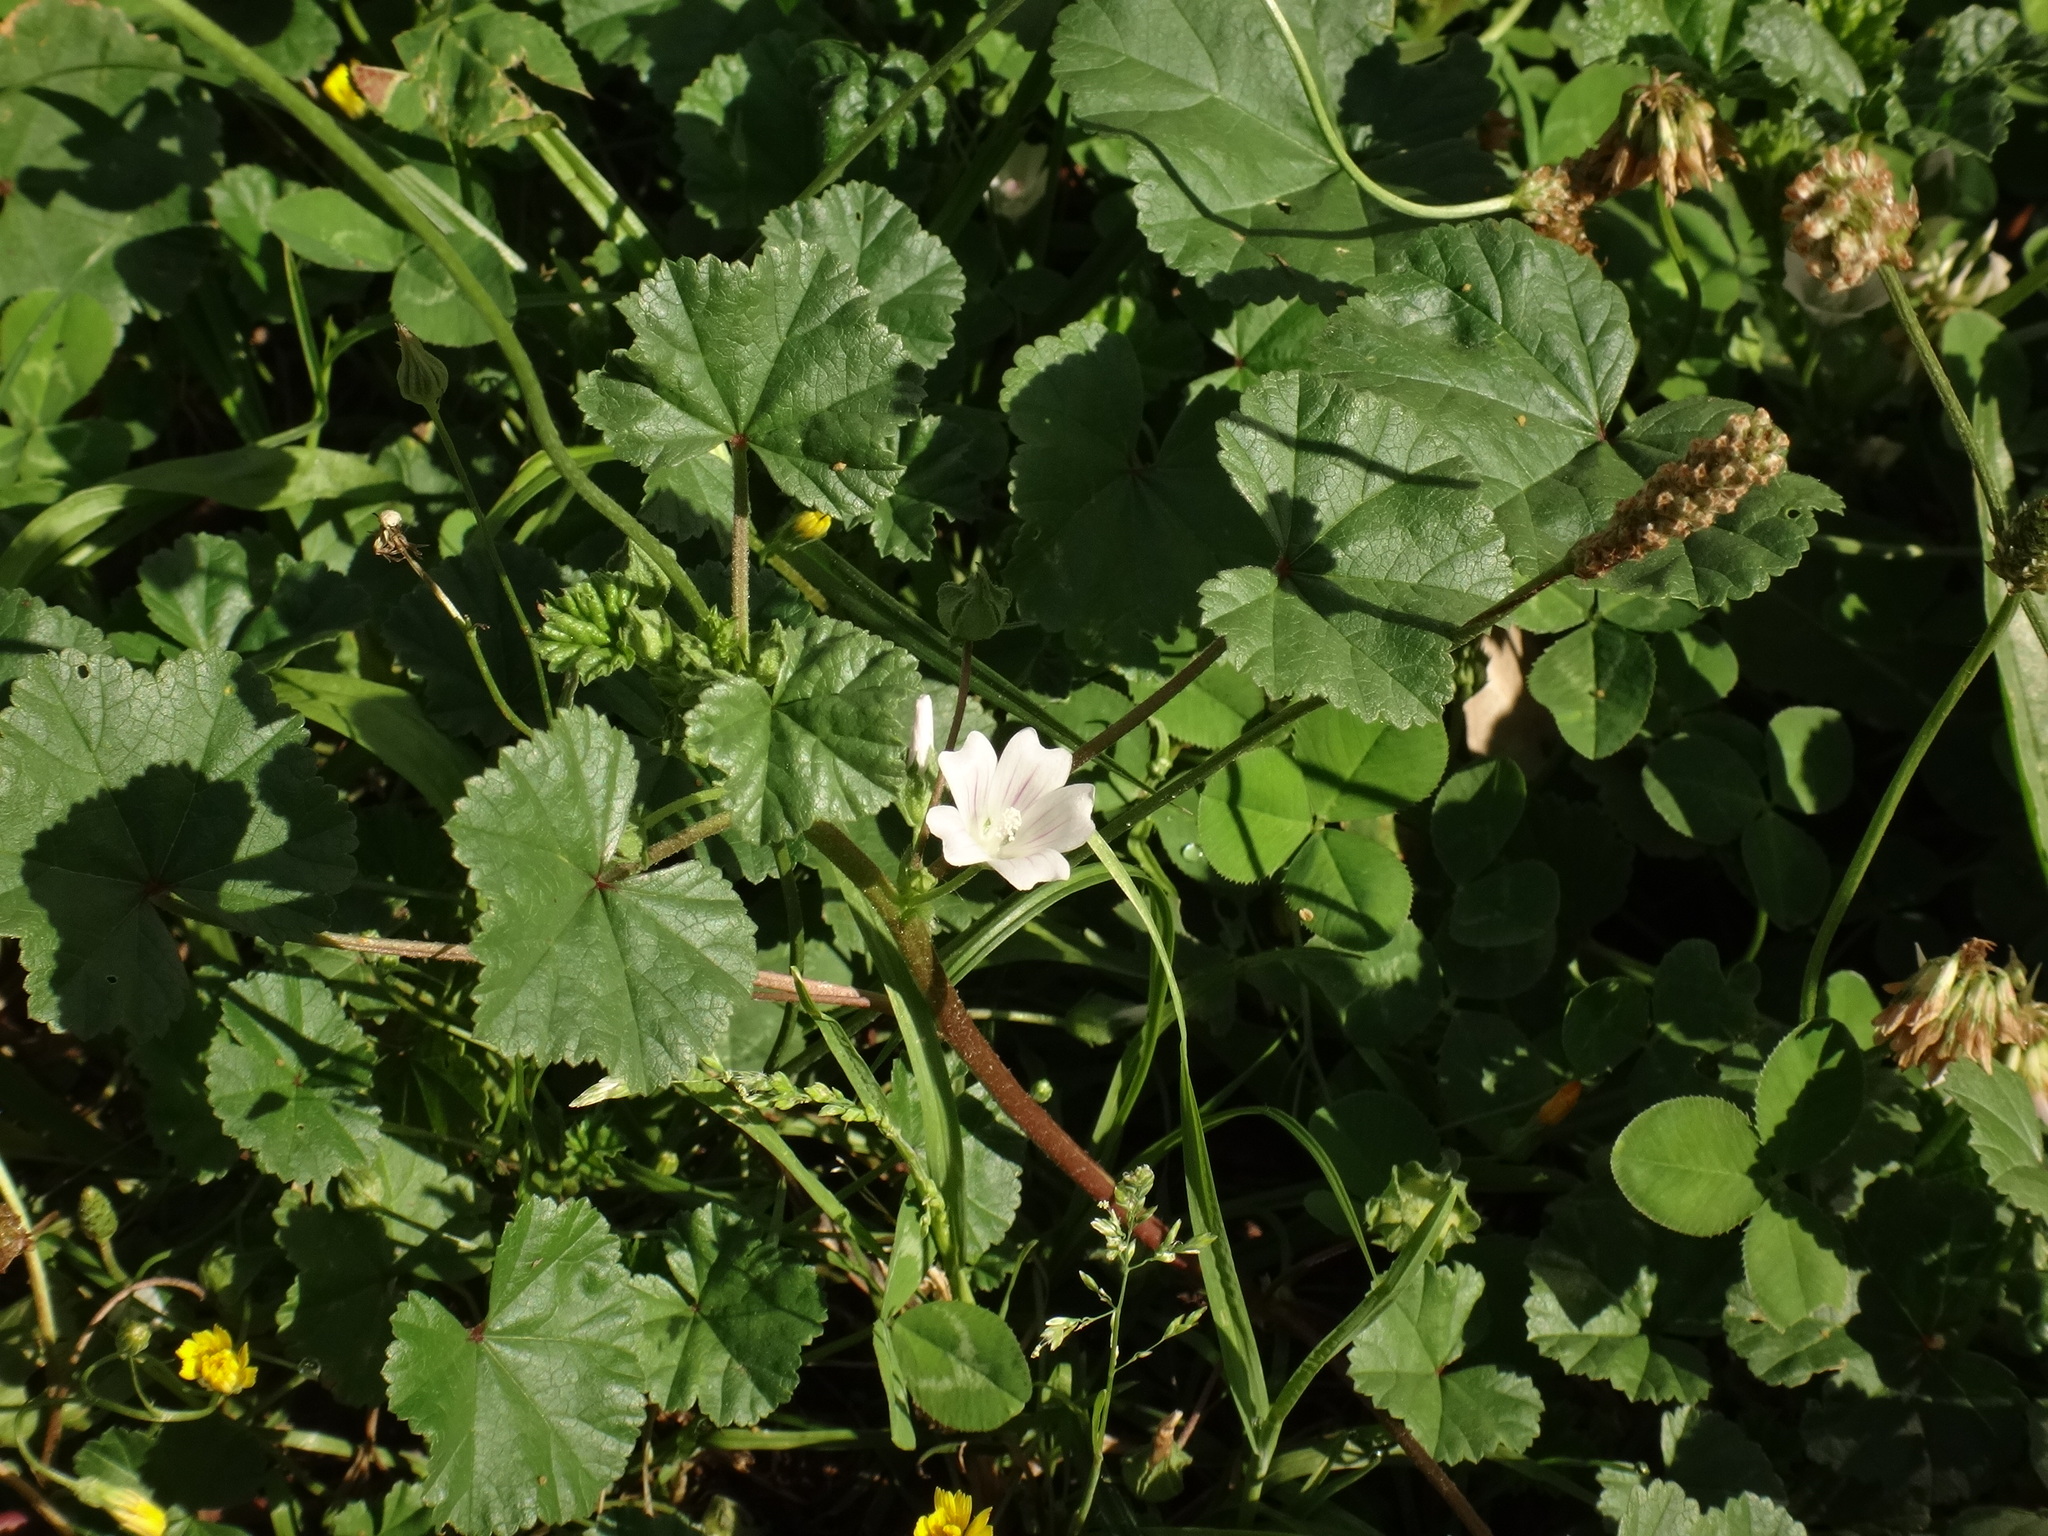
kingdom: Plantae
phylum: Tracheophyta
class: Magnoliopsida
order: Malvales
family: Malvaceae
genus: Malva
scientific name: Malva neglecta
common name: Common mallow
